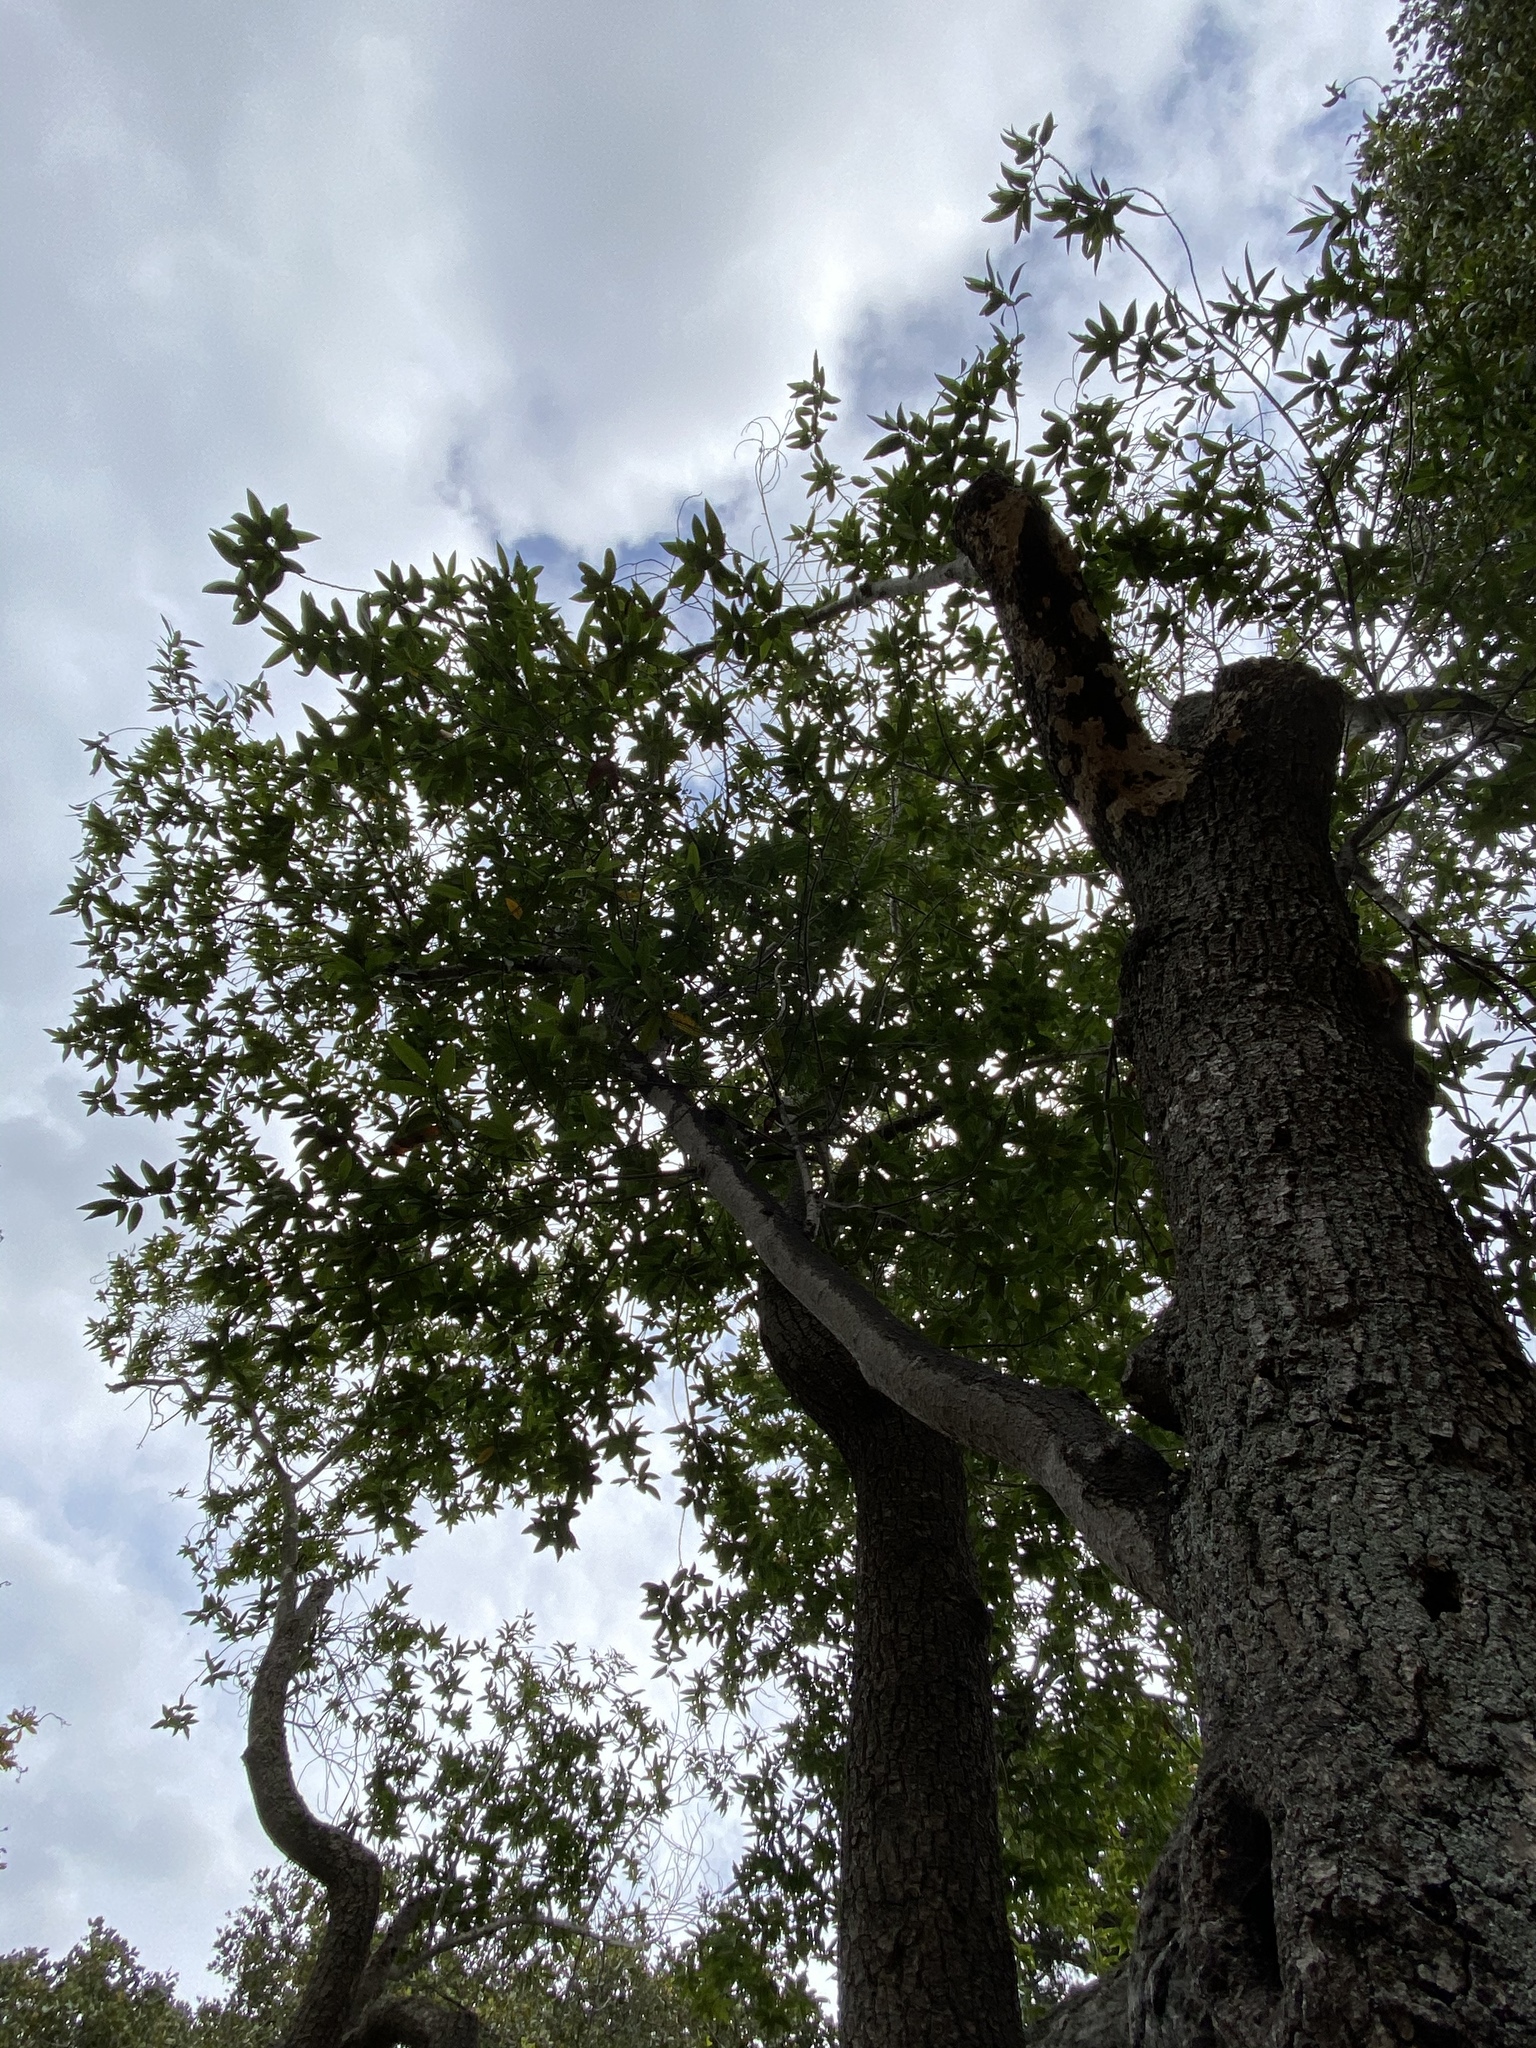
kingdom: Plantae
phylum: Tracheophyta
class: Magnoliopsida
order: Laurales
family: Lauraceae
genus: Umbellularia
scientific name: Umbellularia californica
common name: California bay
